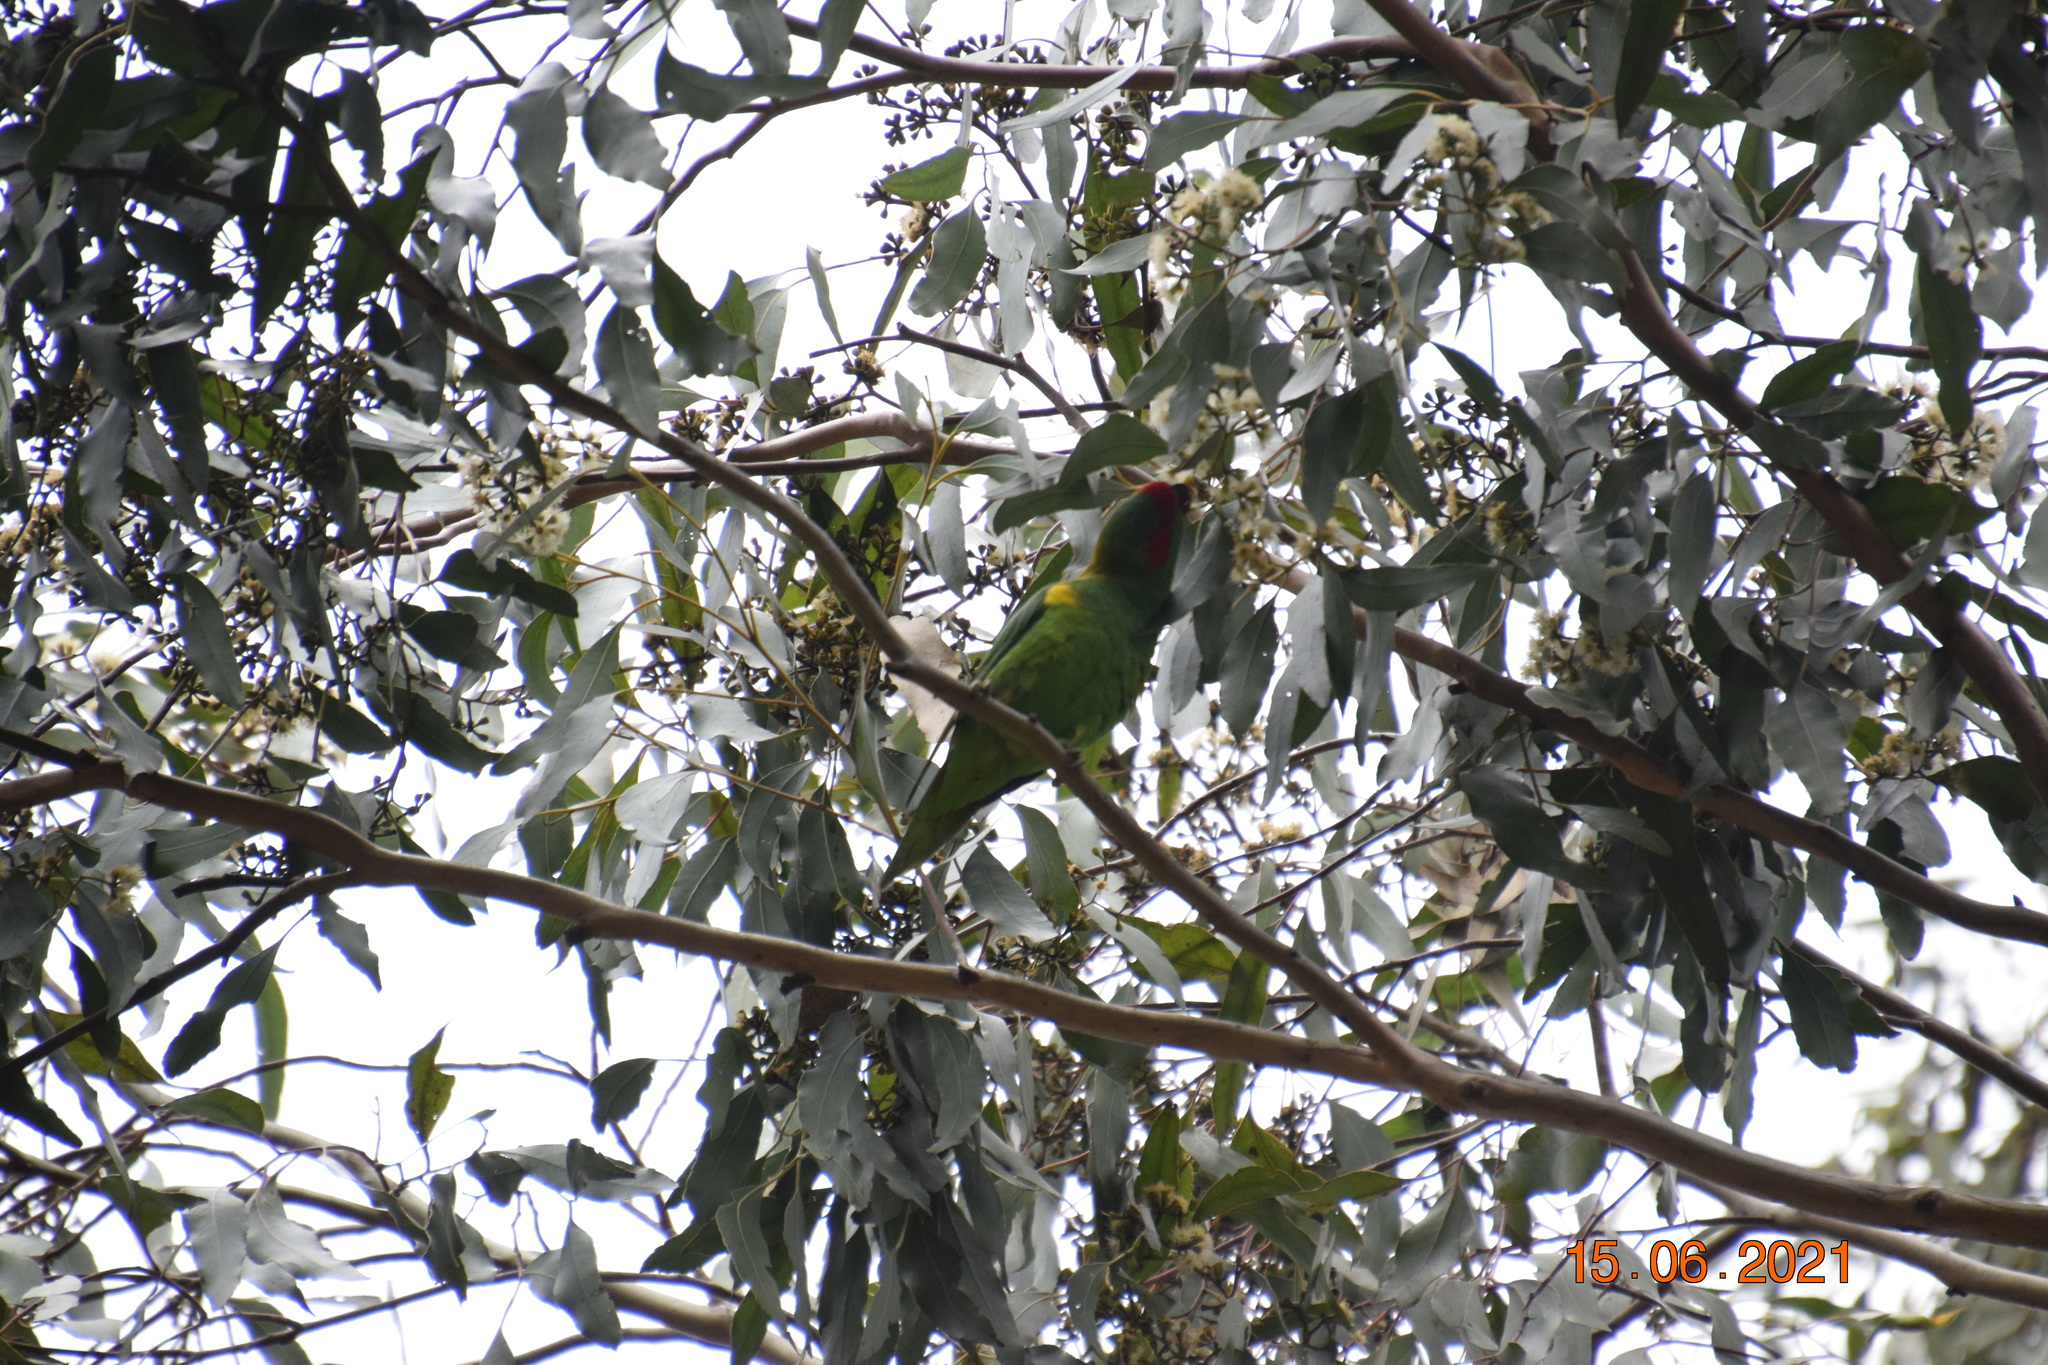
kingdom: Animalia
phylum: Chordata
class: Aves
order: Psittaciformes
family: Psittacidae
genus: Glossopsitta
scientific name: Glossopsitta concinna
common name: Musk lorikeet
